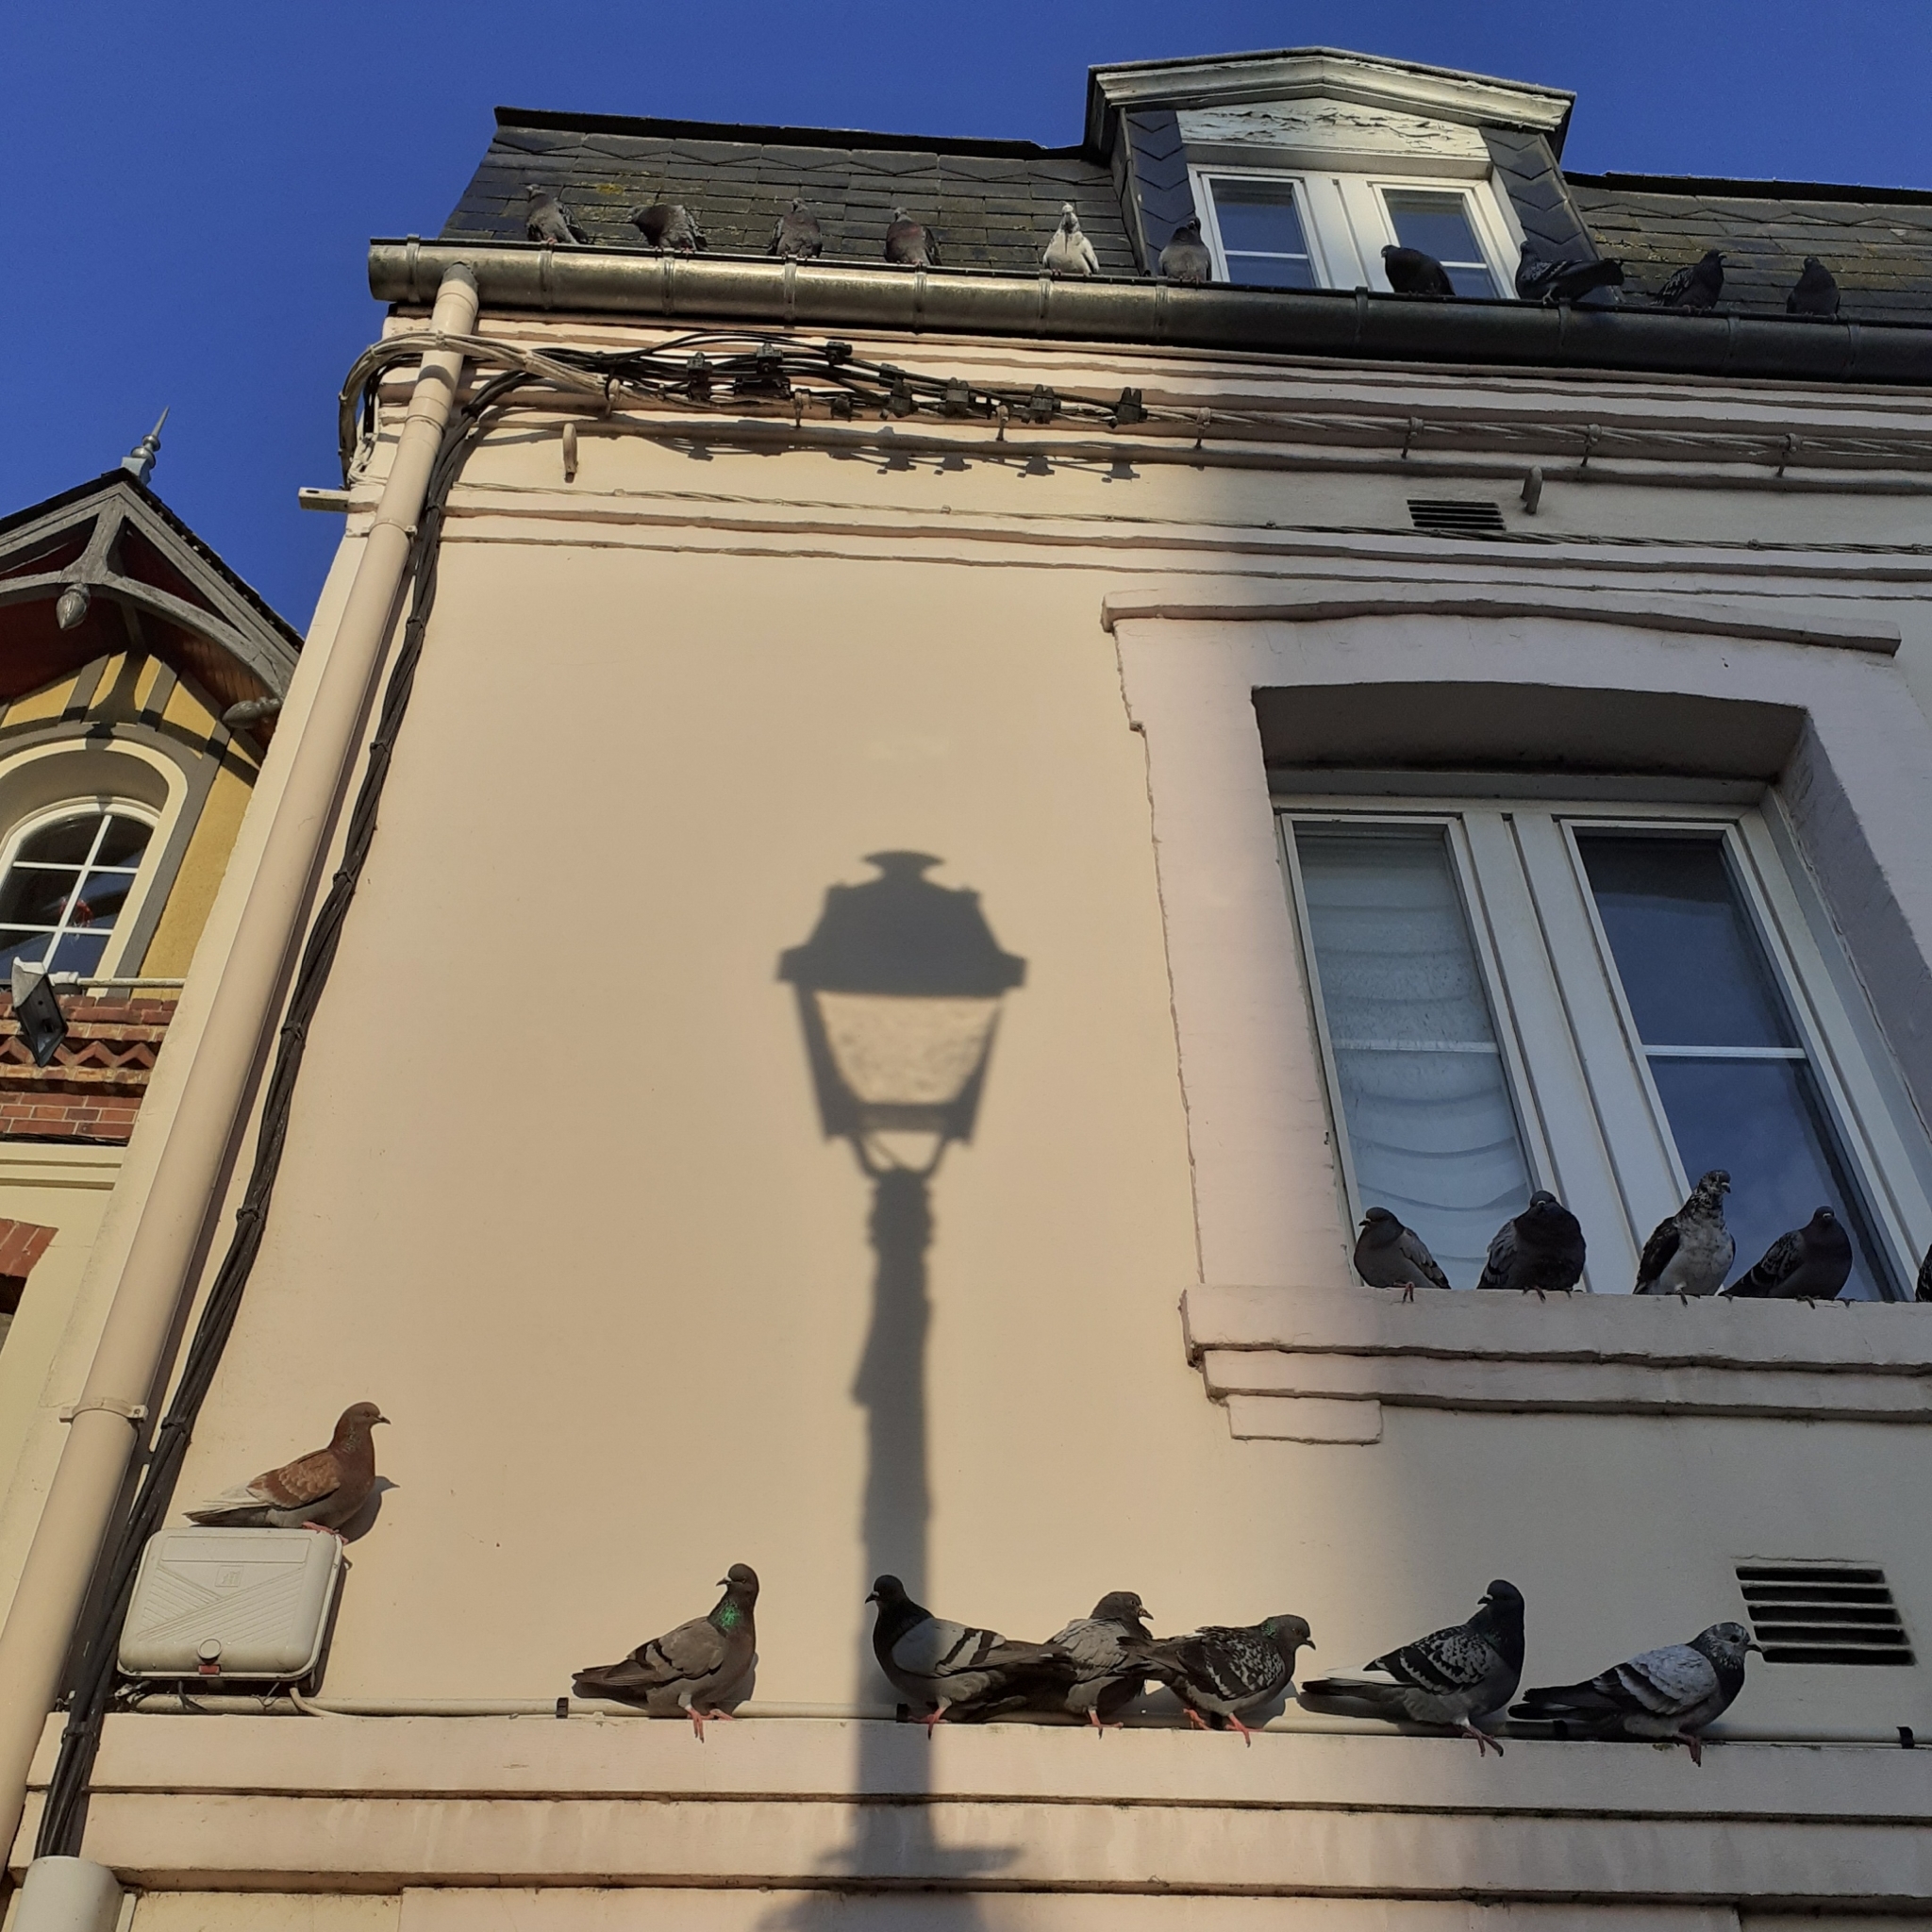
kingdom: Animalia
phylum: Chordata
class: Aves
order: Columbiformes
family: Columbidae
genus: Columba
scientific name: Columba livia
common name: Rock pigeon
